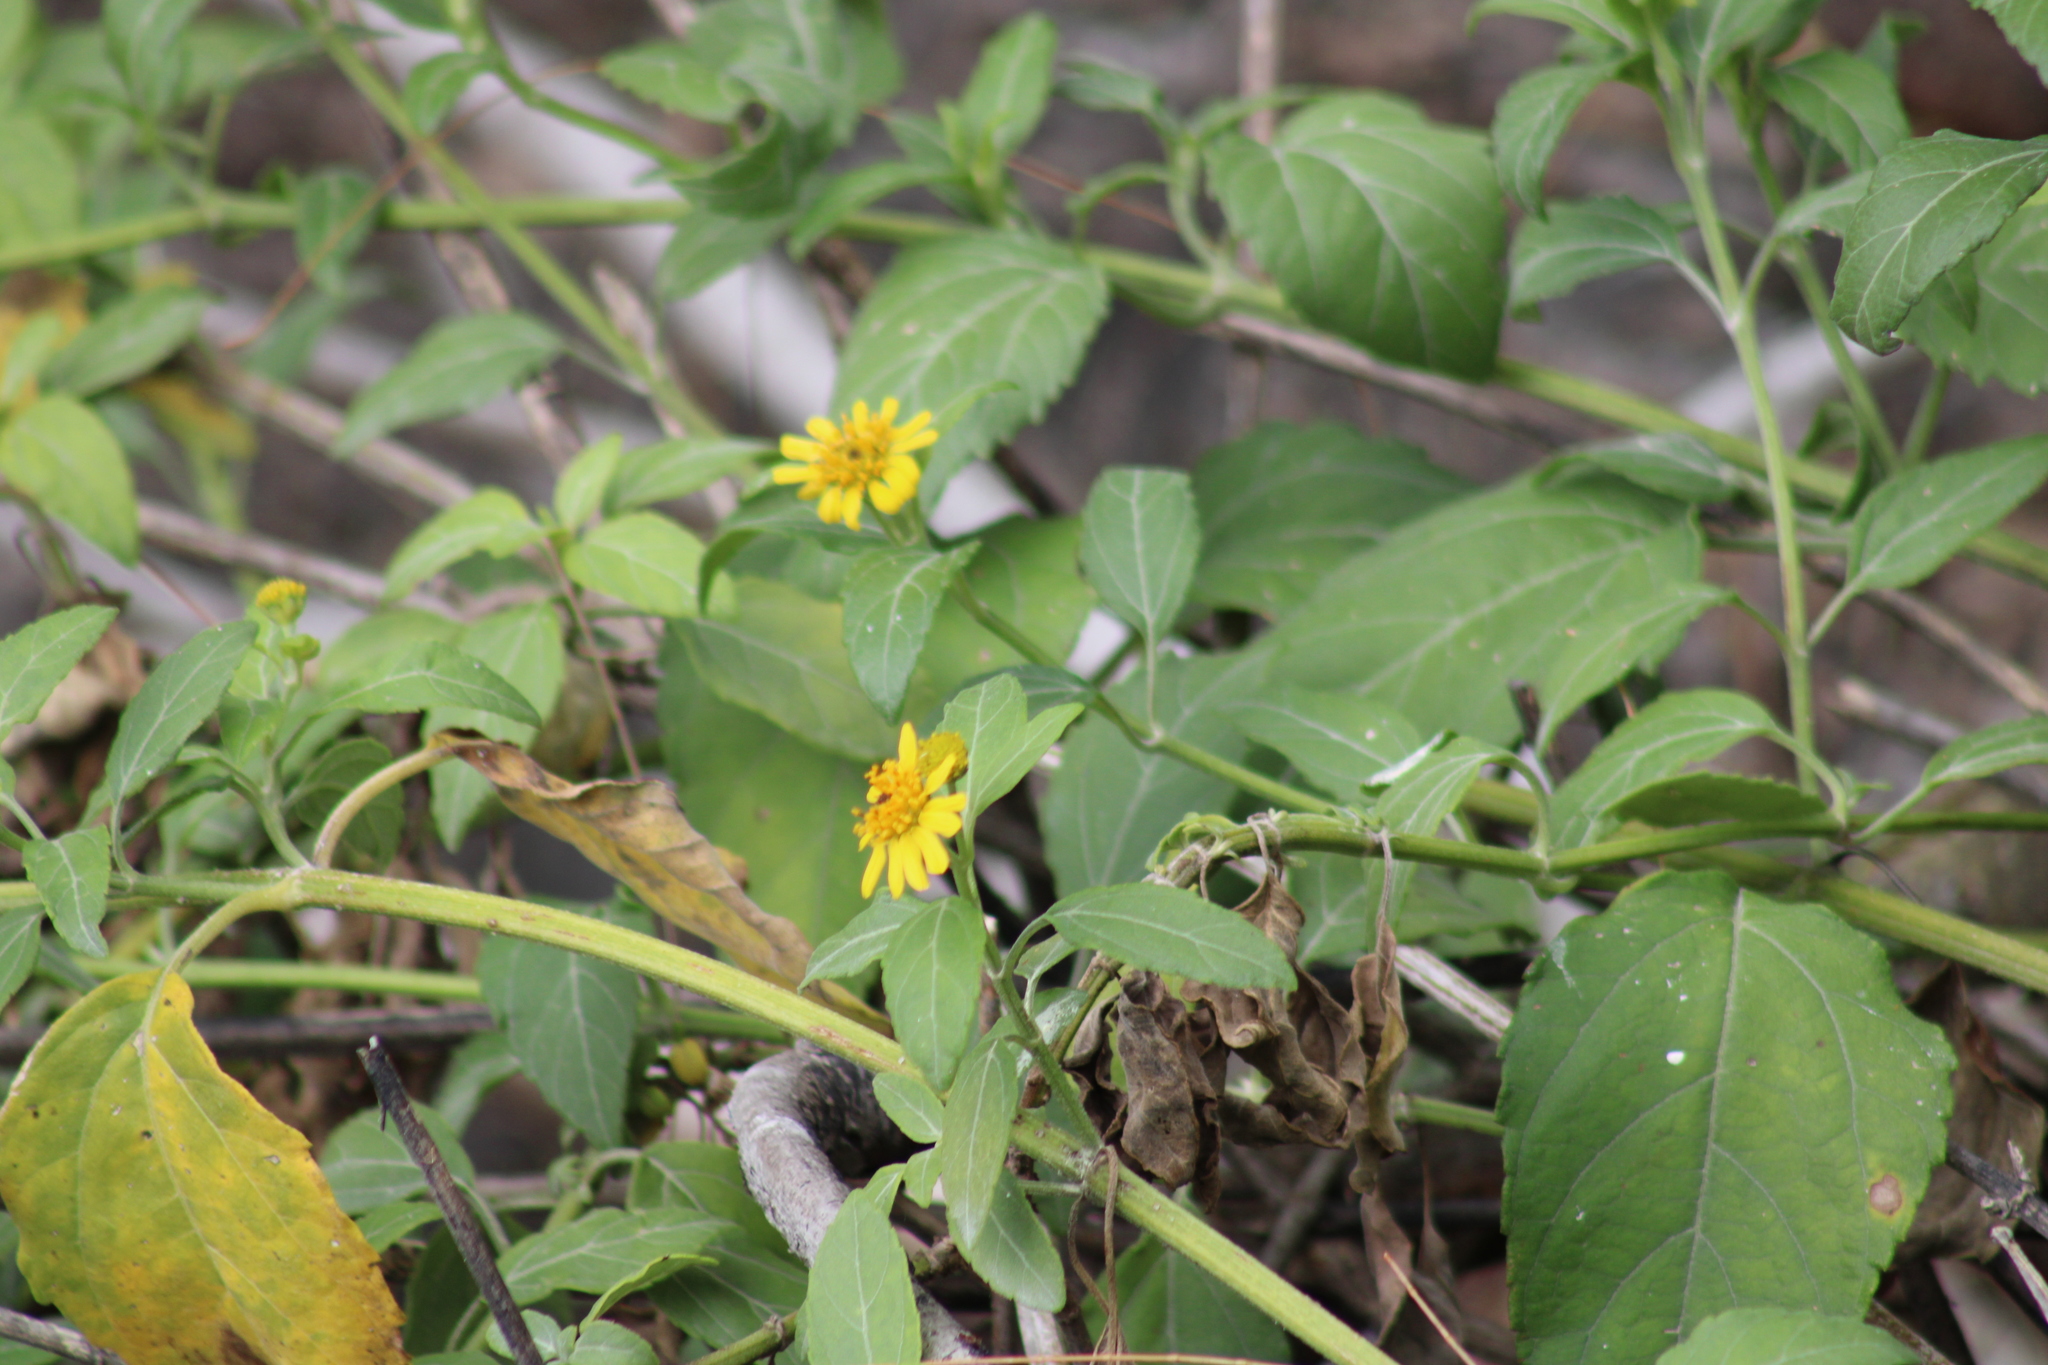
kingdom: Plantae
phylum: Tracheophyta
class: Magnoliopsida
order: Asterales
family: Asteraceae
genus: Wollastonia
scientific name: Wollastonia uniflora
